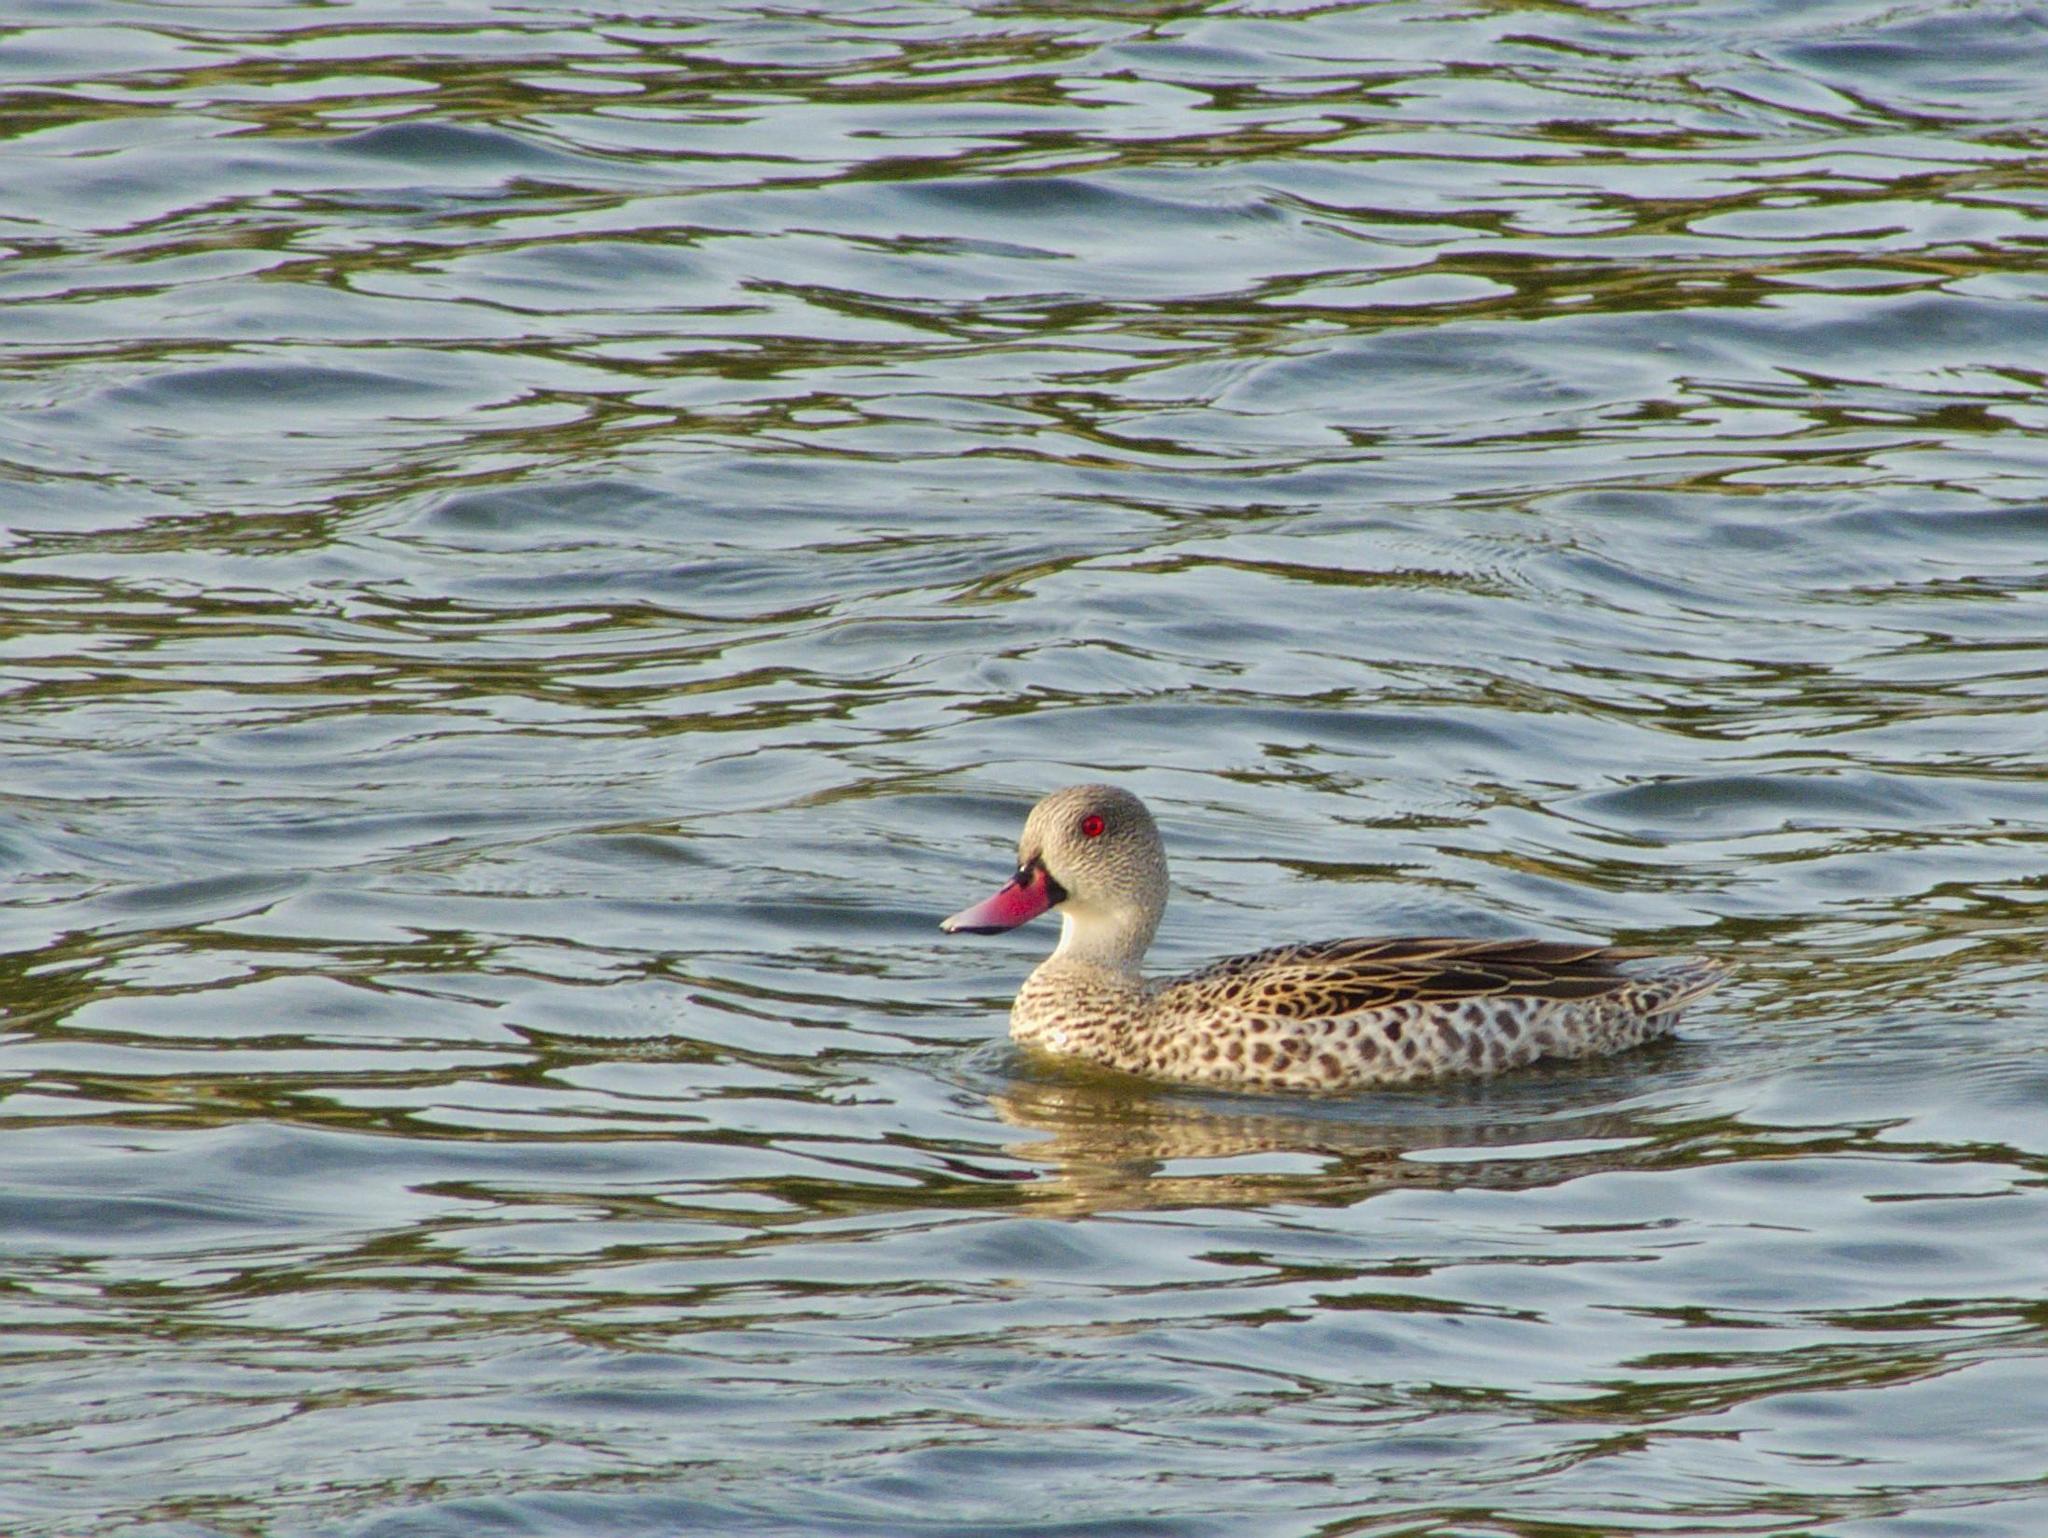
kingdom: Animalia
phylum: Chordata
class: Aves
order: Anseriformes
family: Anatidae
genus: Anas
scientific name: Anas capensis
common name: Cape teal
